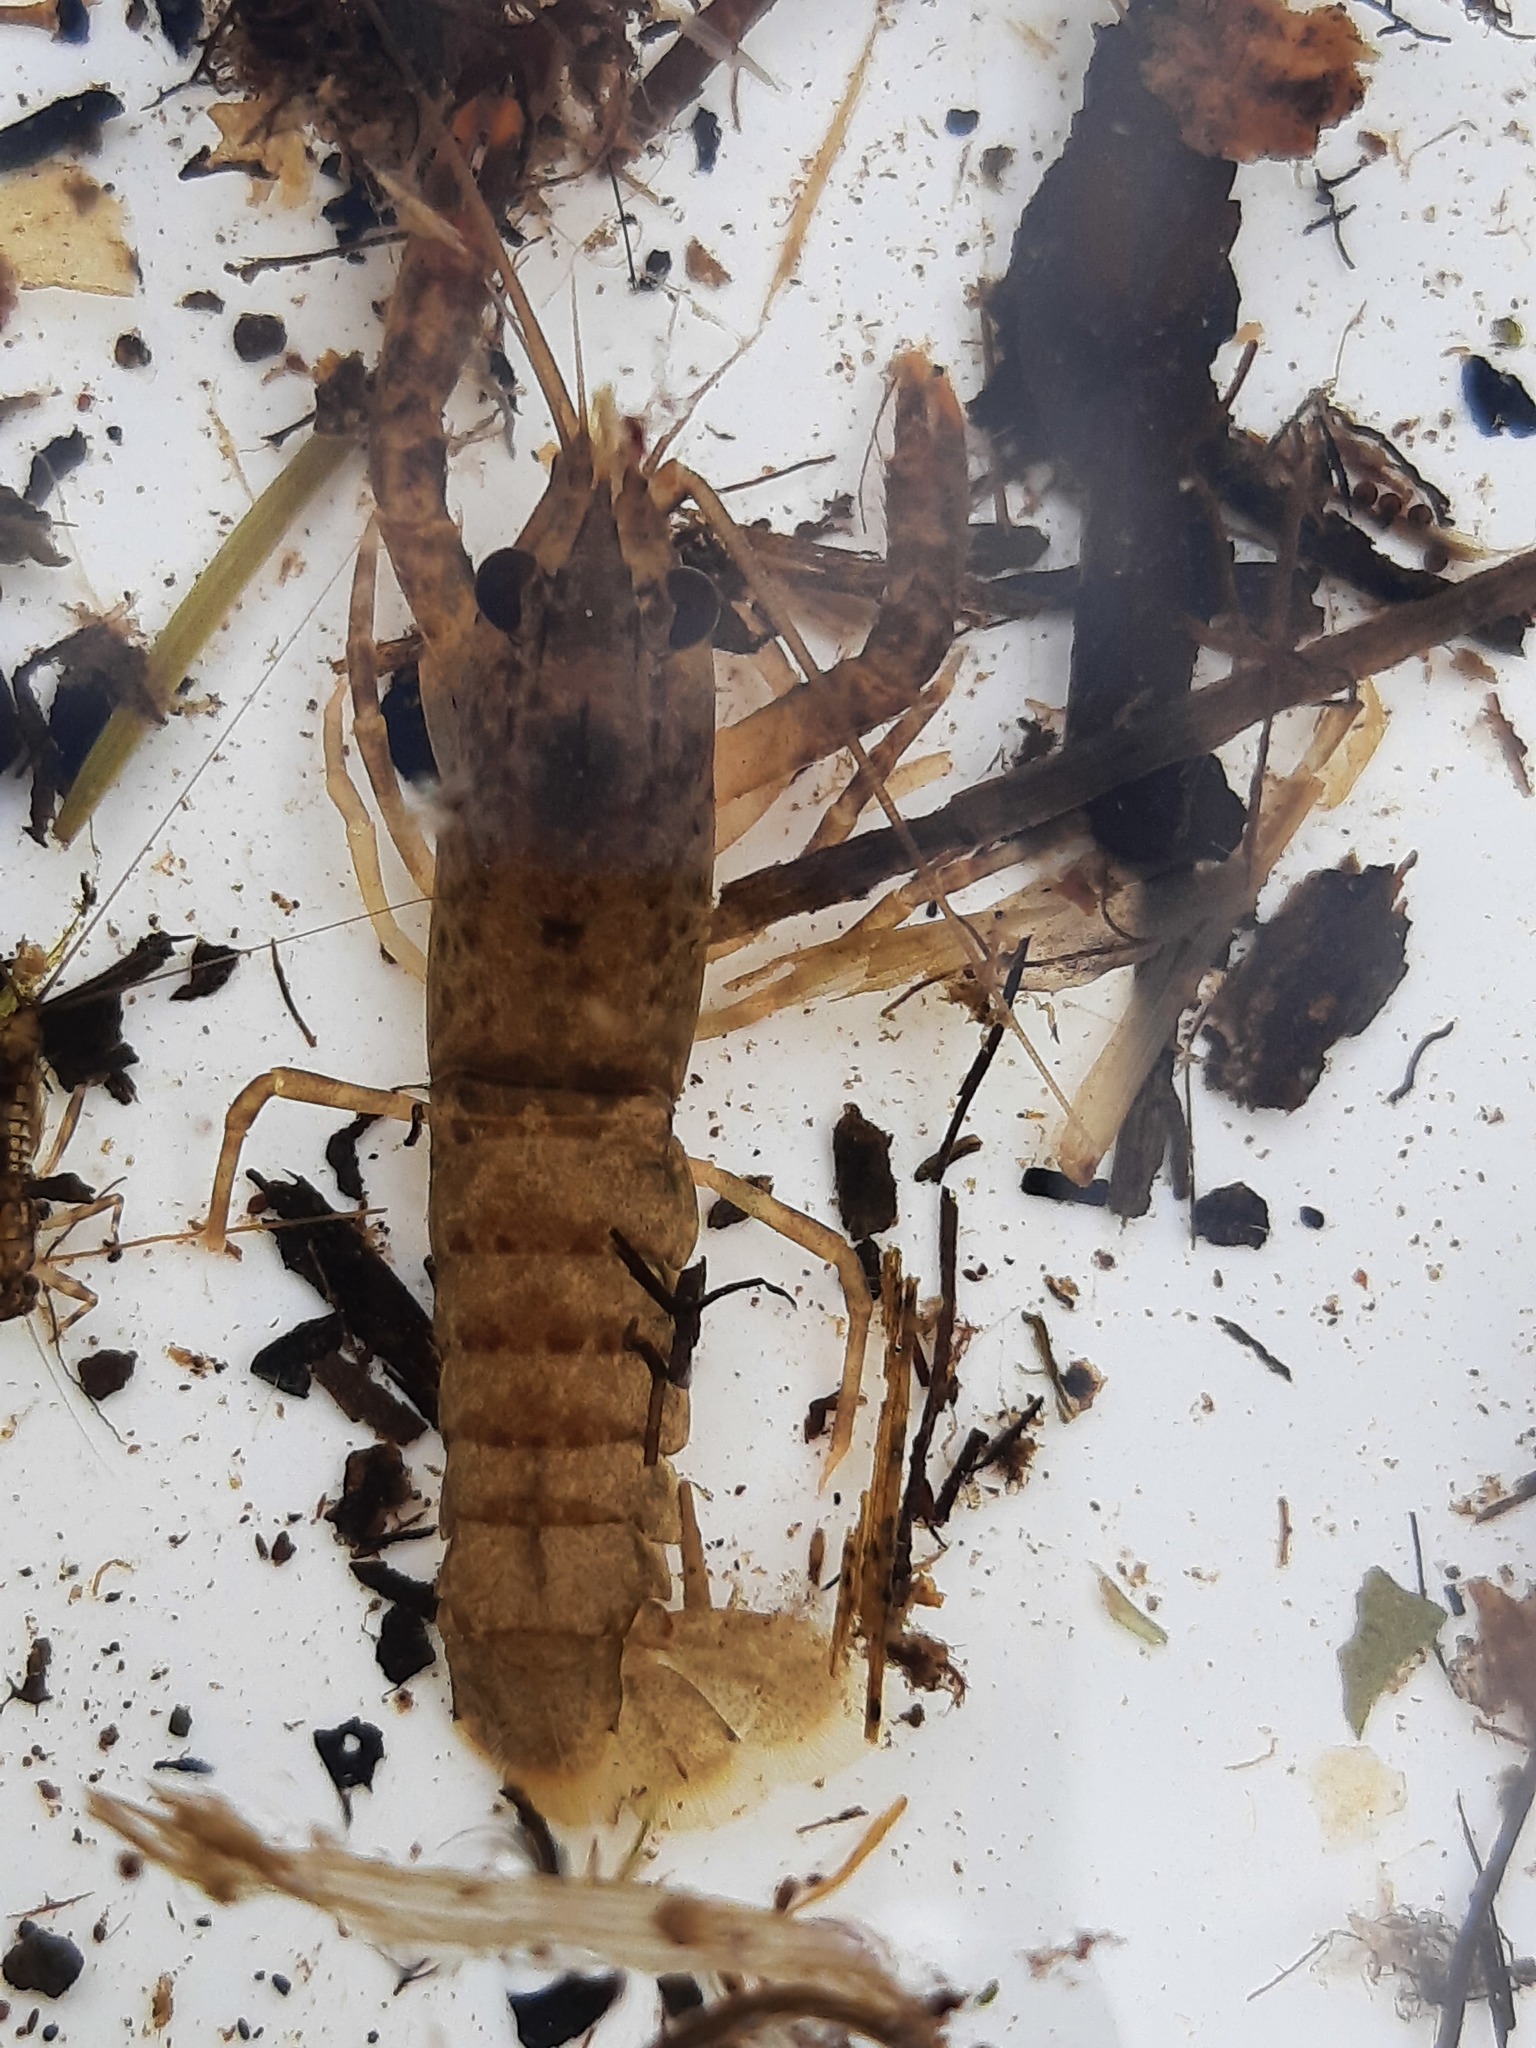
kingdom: Animalia
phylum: Arthropoda
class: Malacostraca
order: Decapoda
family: Parastacidae
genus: Paranephrops
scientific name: Paranephrops planifrons
